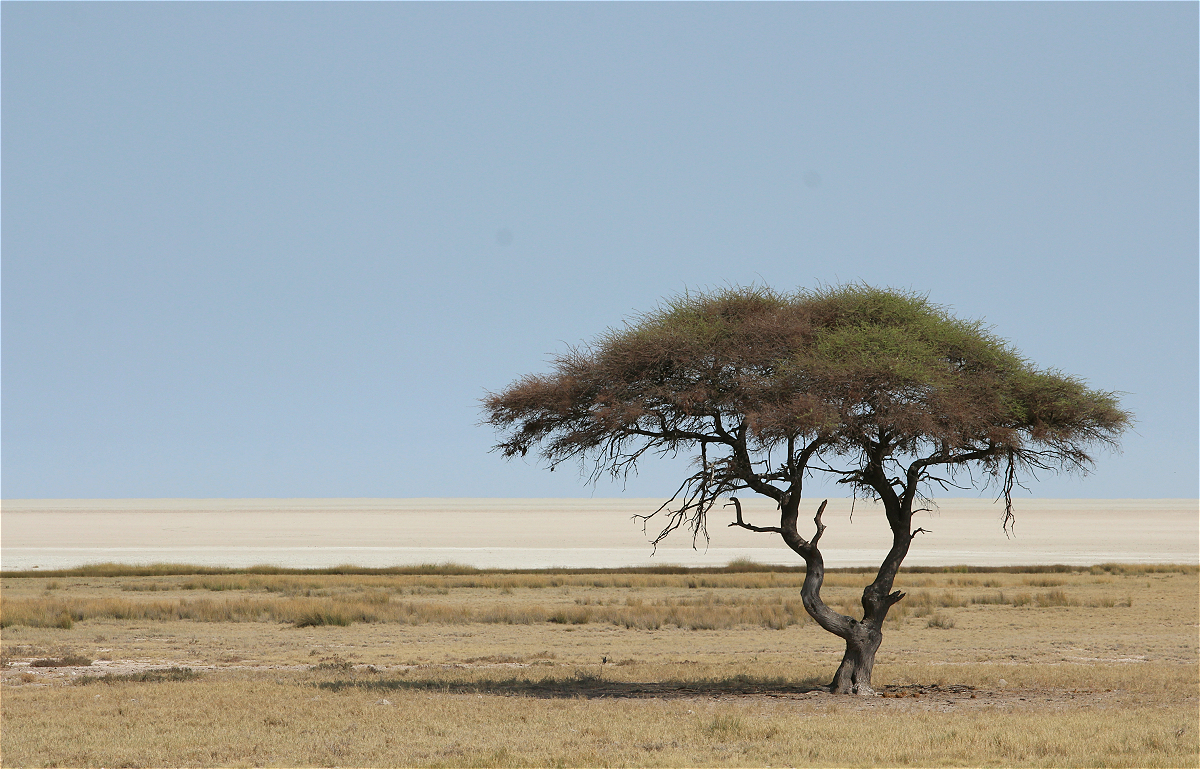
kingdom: Plantae
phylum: Tracheophyta
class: Magnoliopsida
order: Fabales
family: Fabaceae
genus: Vachellia
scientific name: Vachellia tortilis
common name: Umbrella thorn acacia
